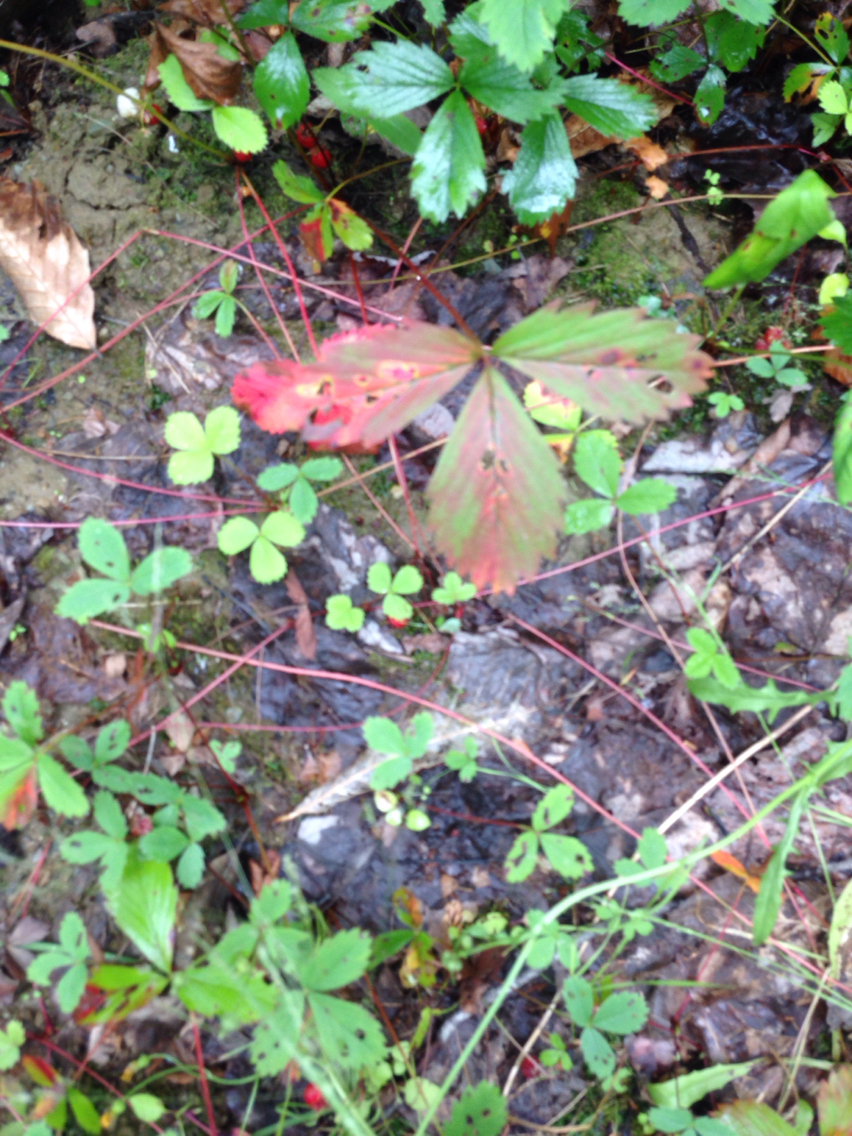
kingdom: Plantae
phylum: Tracheophyta
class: Magnoliopsida
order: Rosales
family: Rosaceae
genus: Fragaria
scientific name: Fragaria virginiana
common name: Thickleaved wild strawberry
